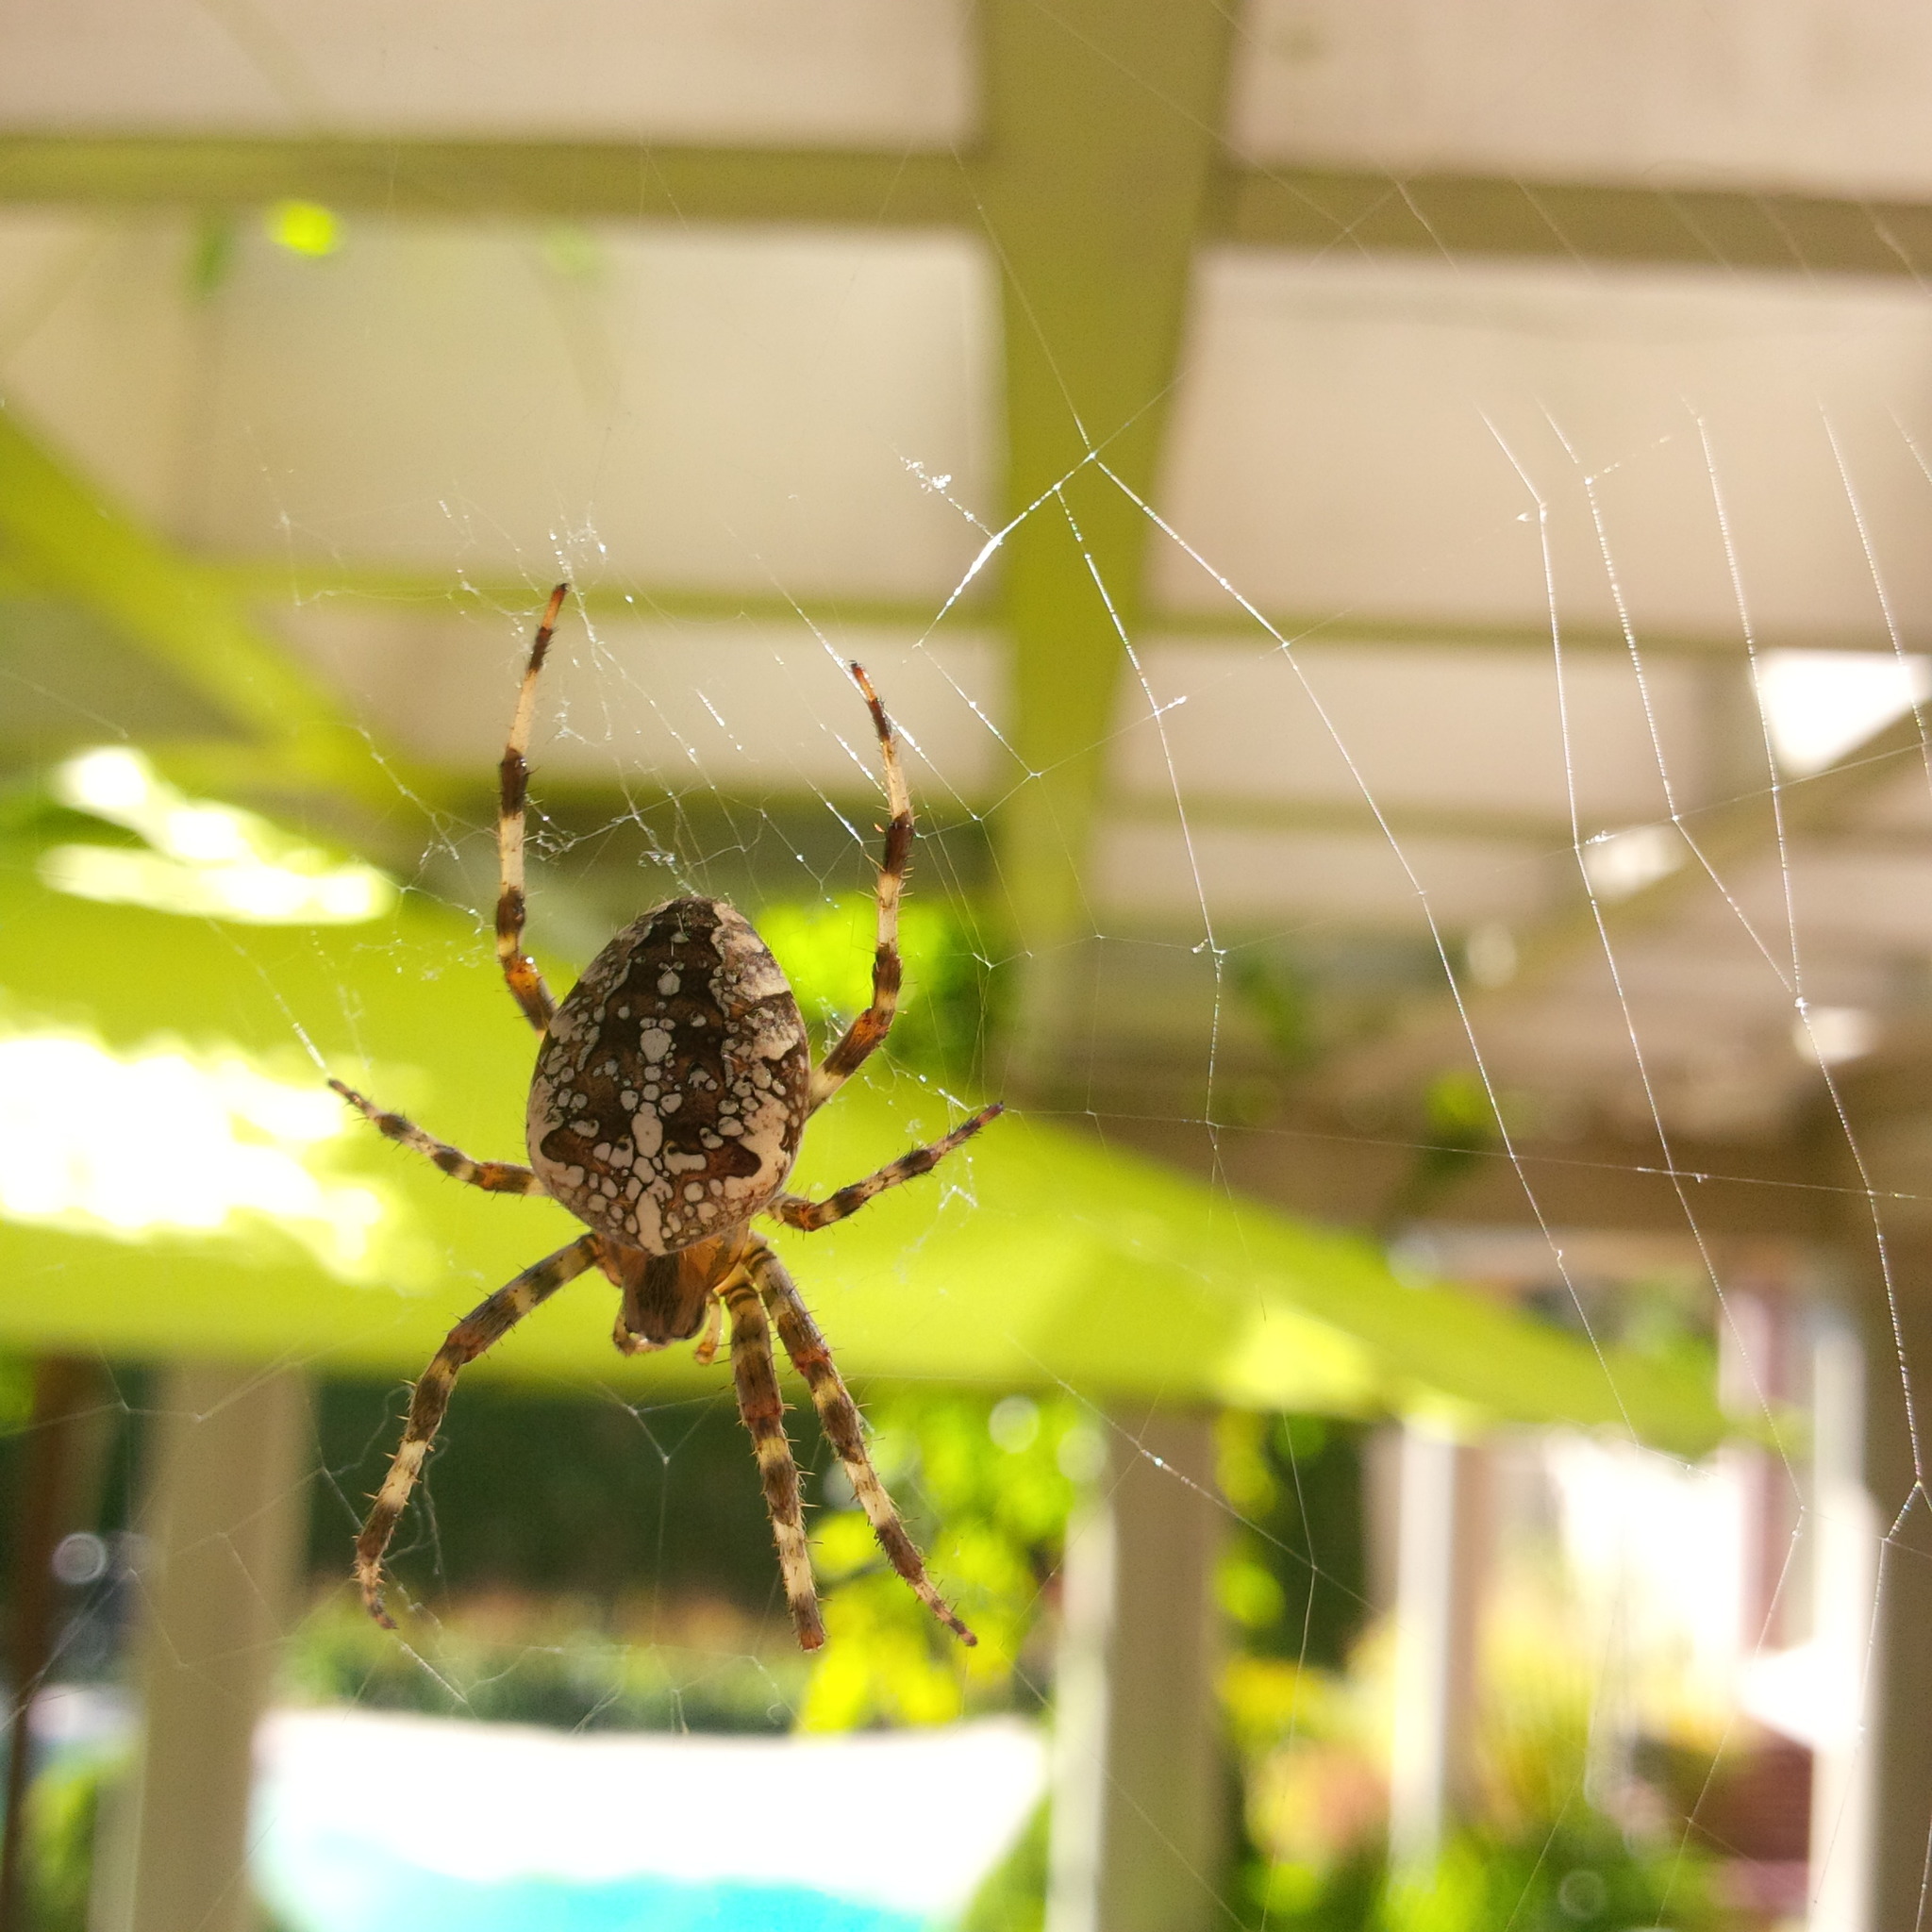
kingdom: Animalia
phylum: Arthropoda
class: Arachnida
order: Araneae
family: Araneidae
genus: Araneus
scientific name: Araneus diadematus
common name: Cross orbweaver
